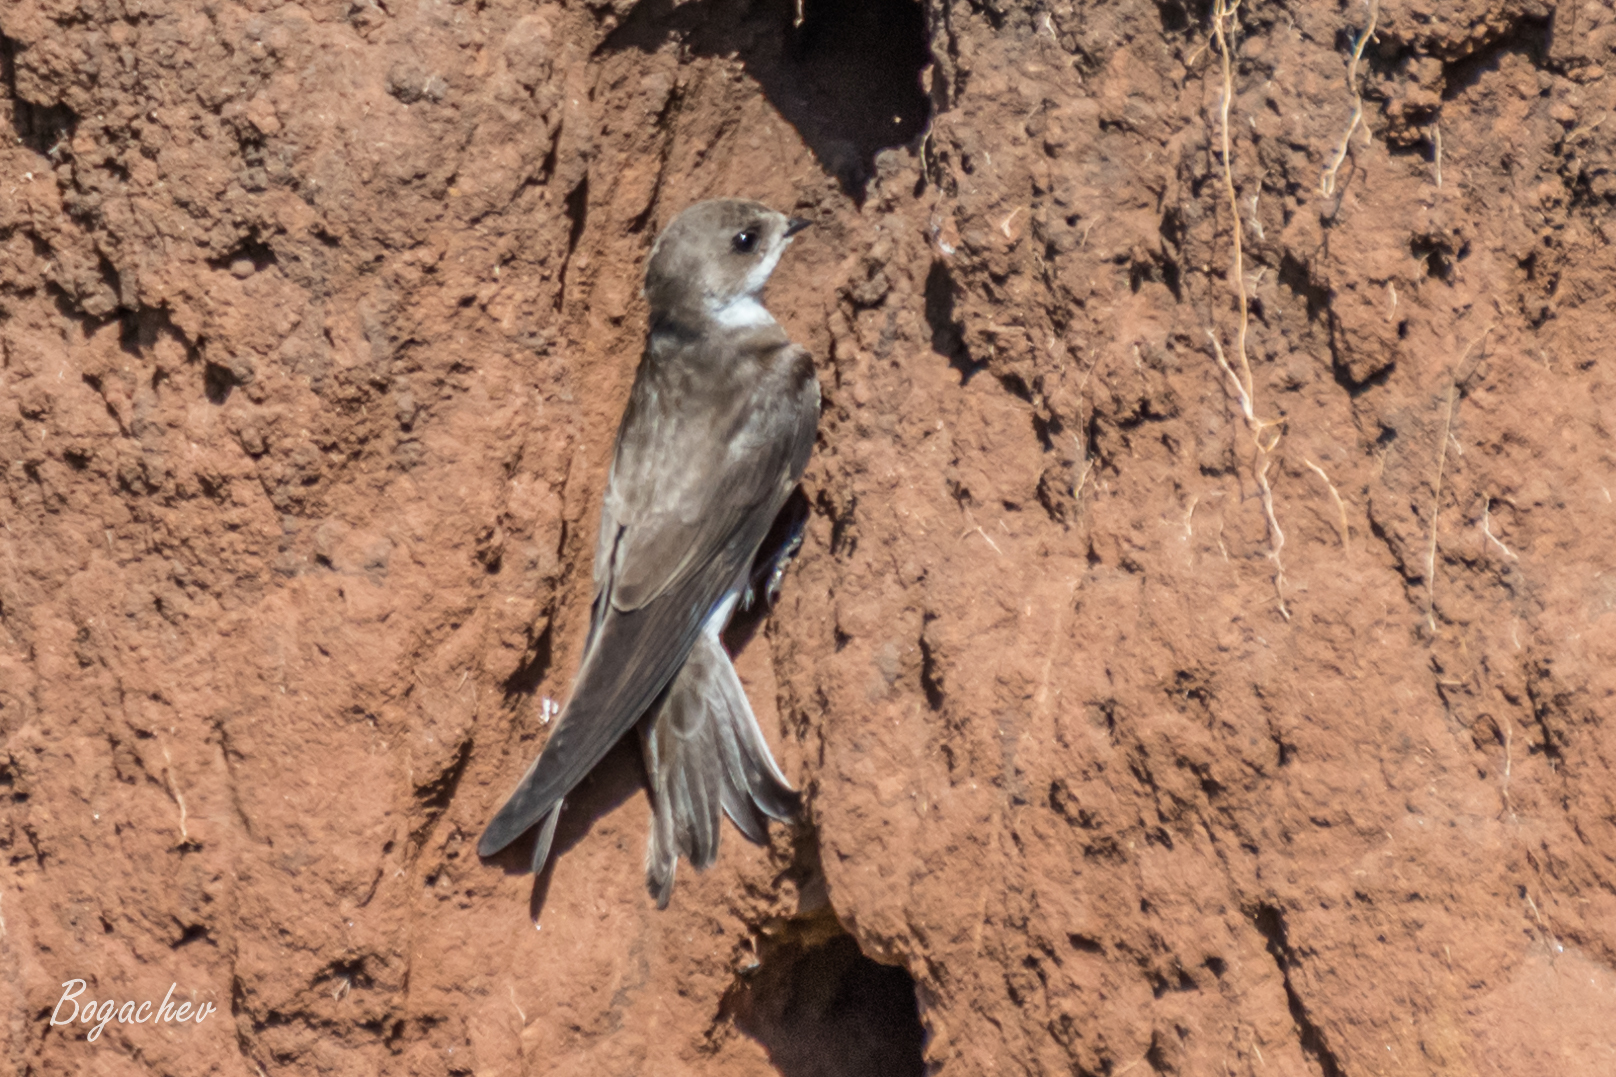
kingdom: Animalia
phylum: Chordata
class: Aves
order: Passeriformes
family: Hirundinidae
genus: Riparia
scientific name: Riparia riparia
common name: Sand martin
